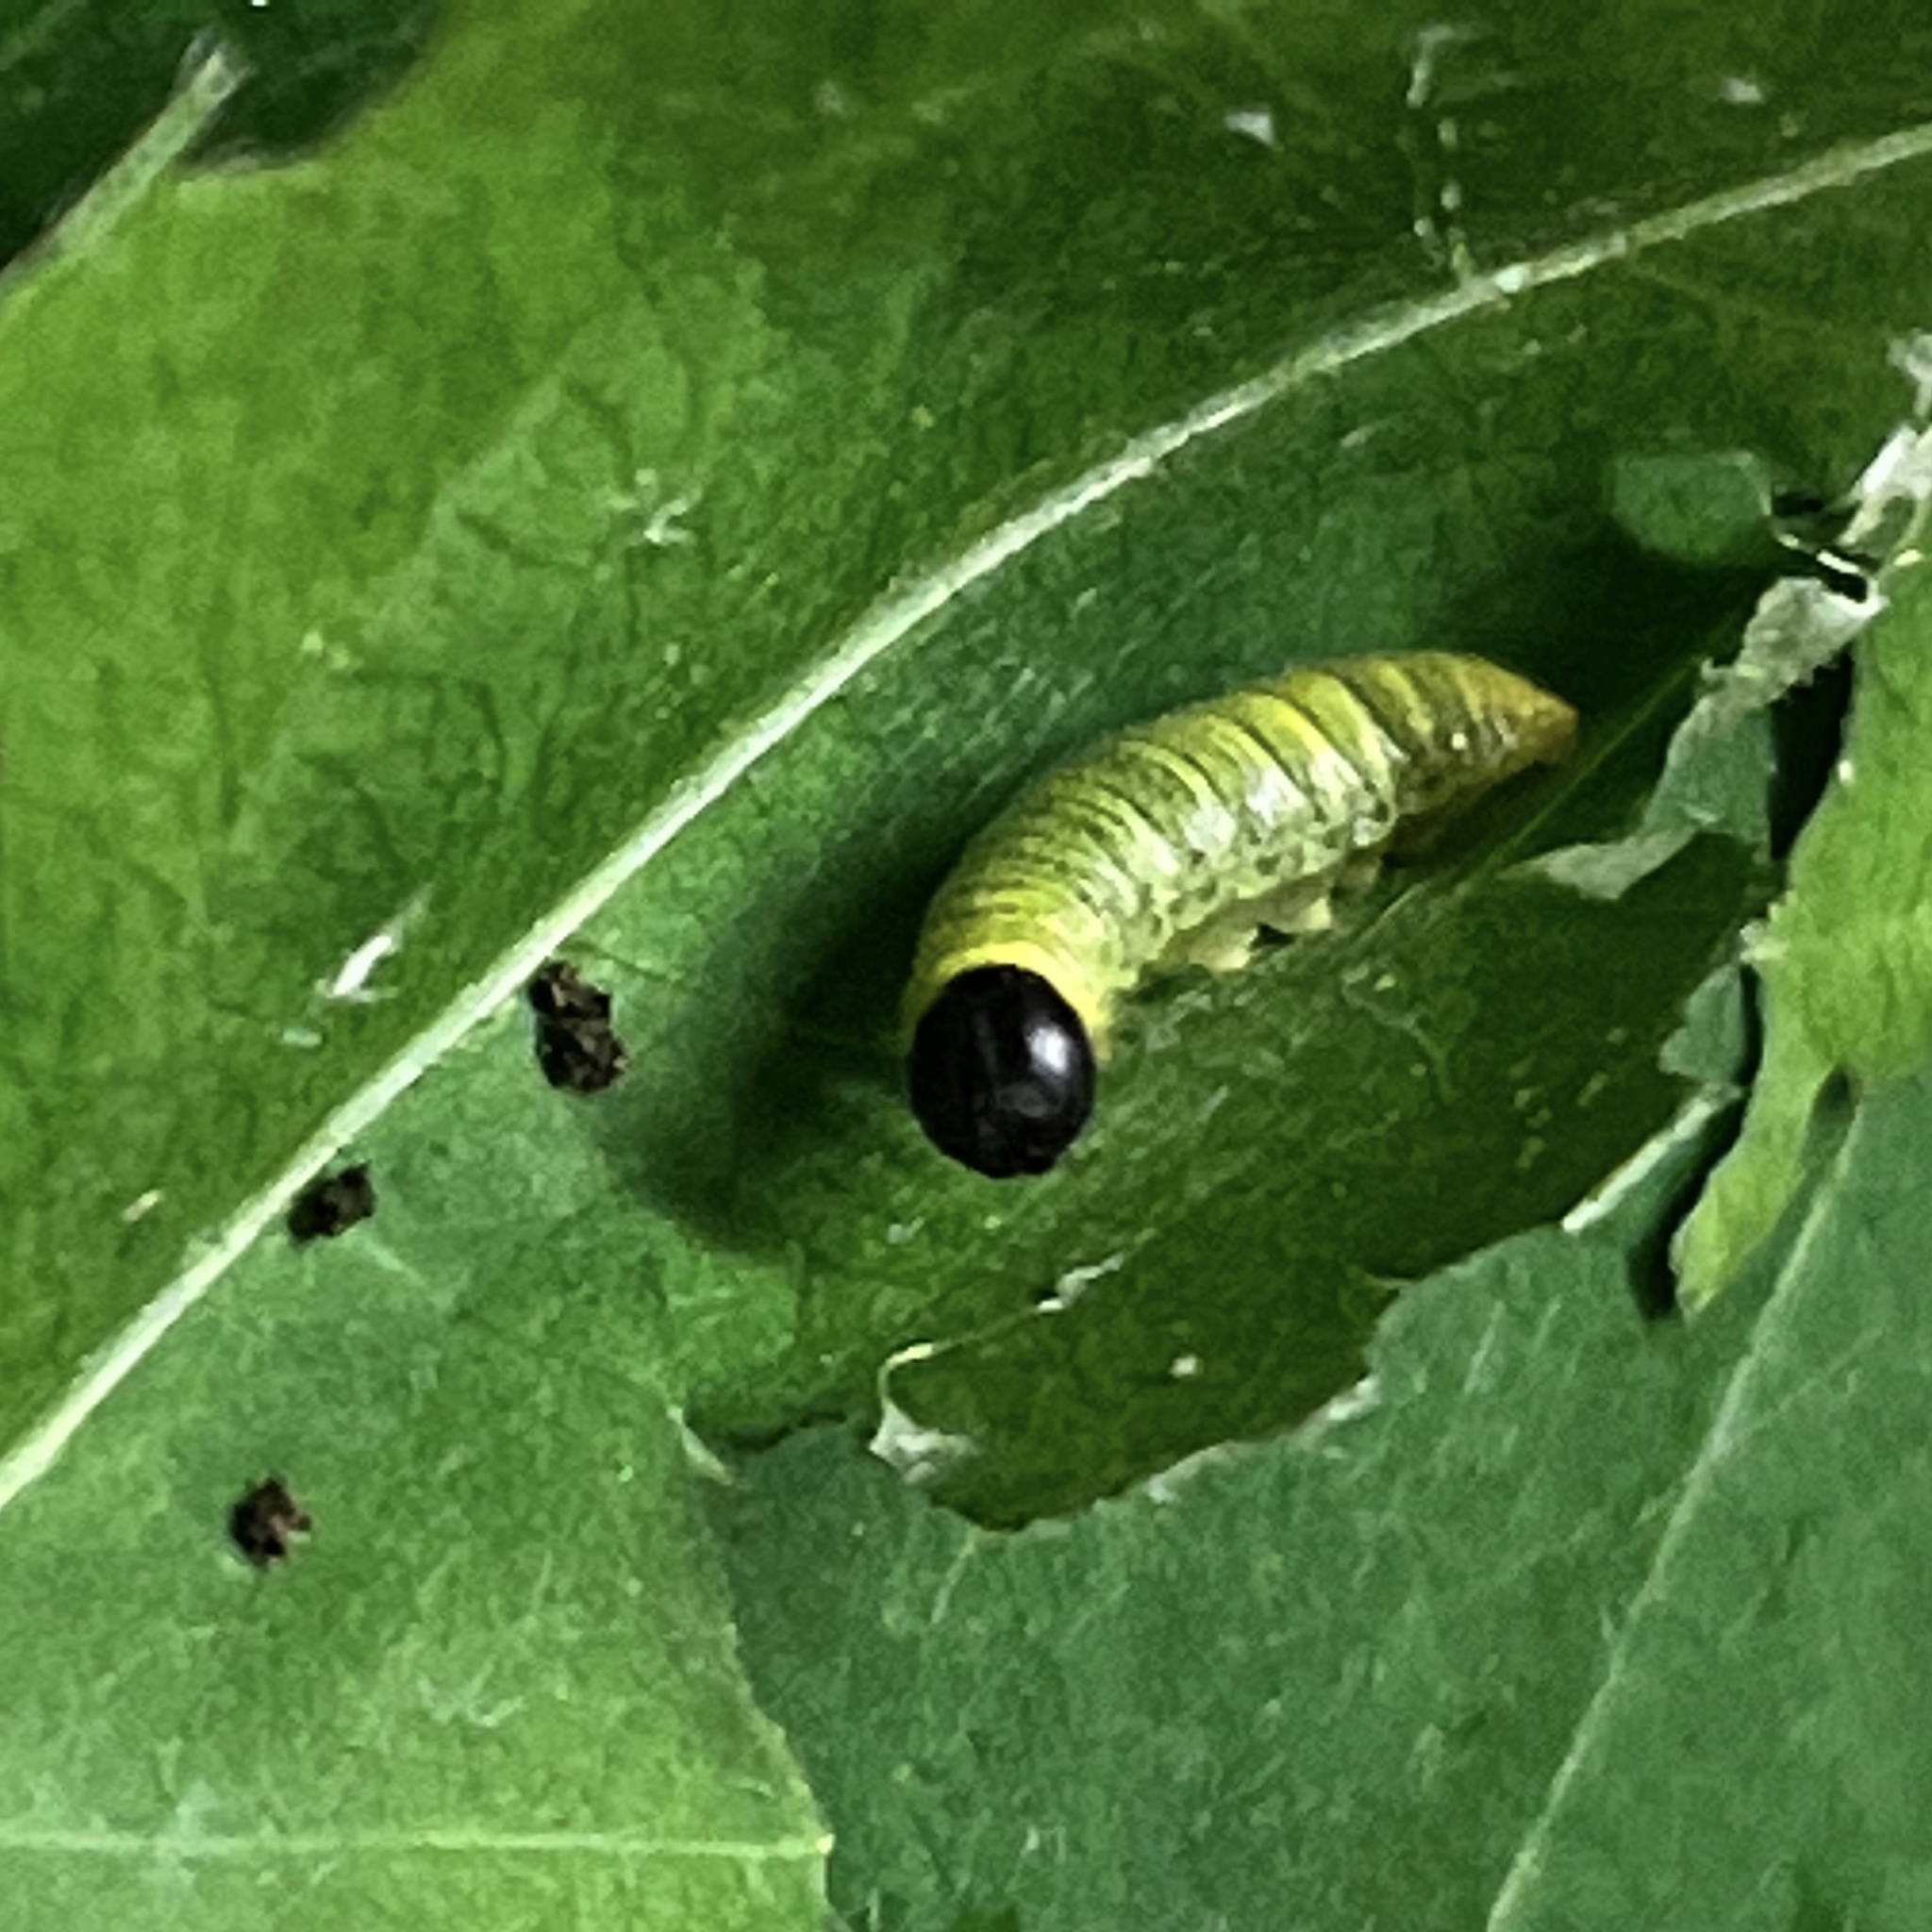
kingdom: Animalia
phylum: Arthropoda
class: Insecta
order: Lepidoptera
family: Hesperiidae
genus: Epargyreus
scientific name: Epargyreus clarus
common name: Silver-spotted skipper
